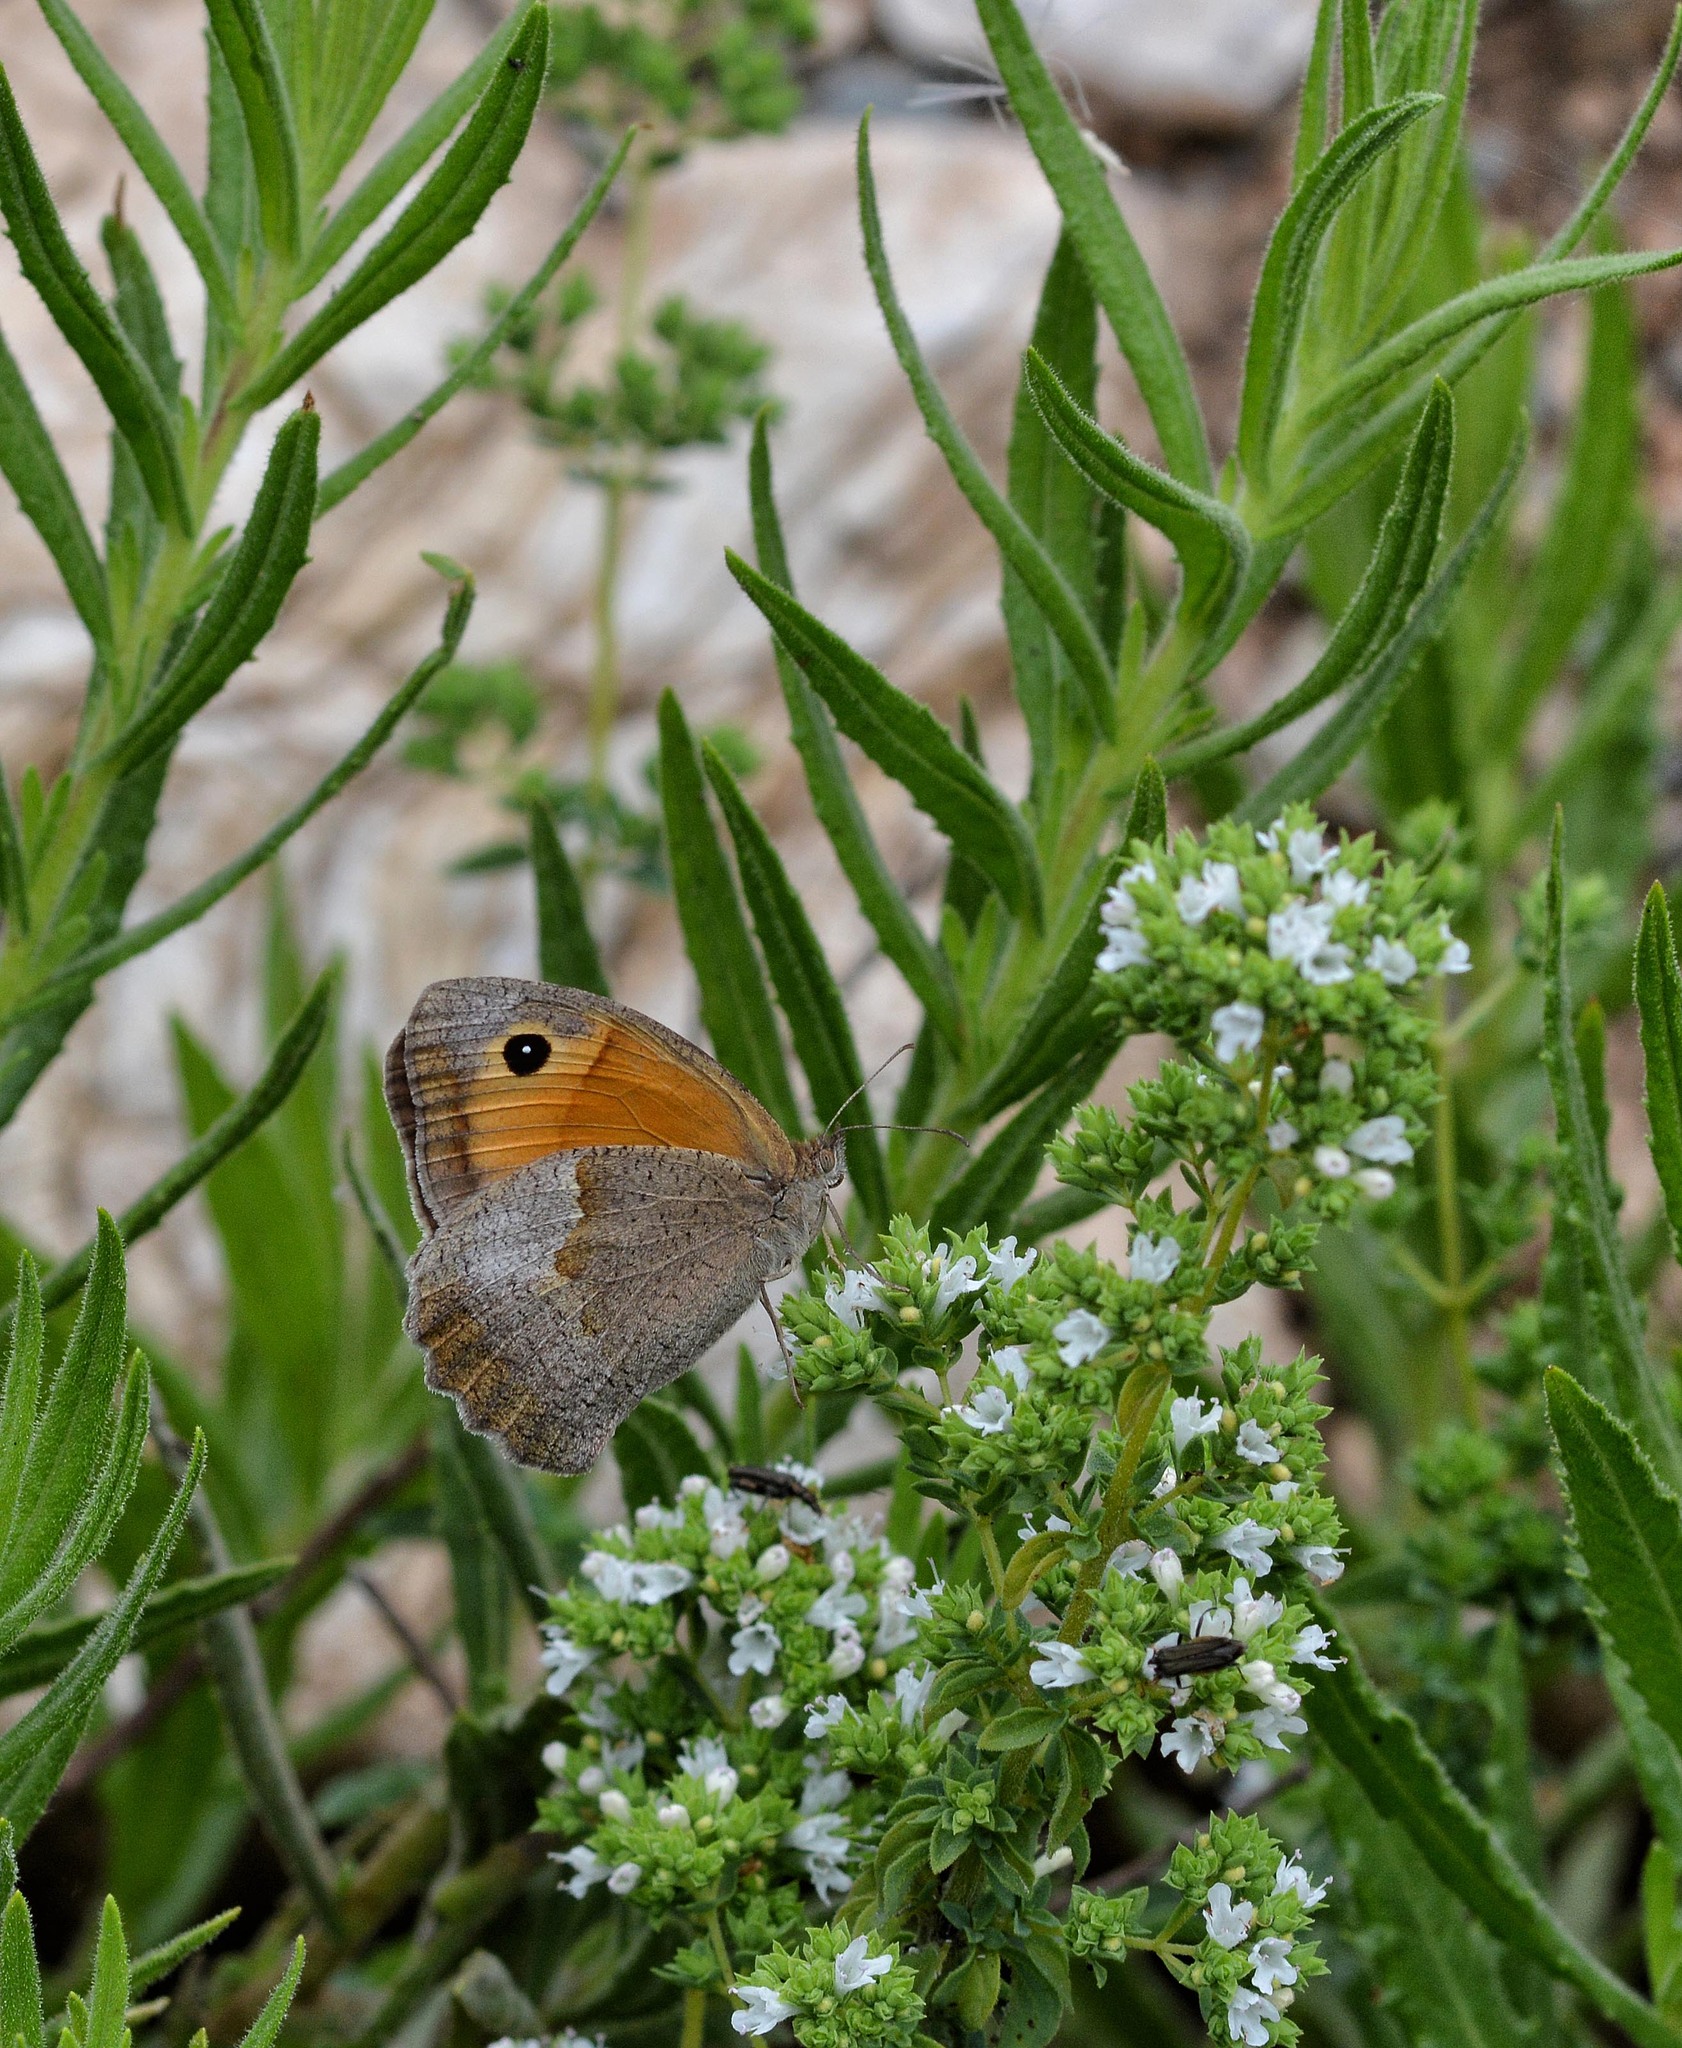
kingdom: Animalia
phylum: Arthropoda
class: Insecta
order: Lepidoptera
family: Nymphalidae
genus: Maniola
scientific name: Maniola jurtina
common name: Meadow brown
